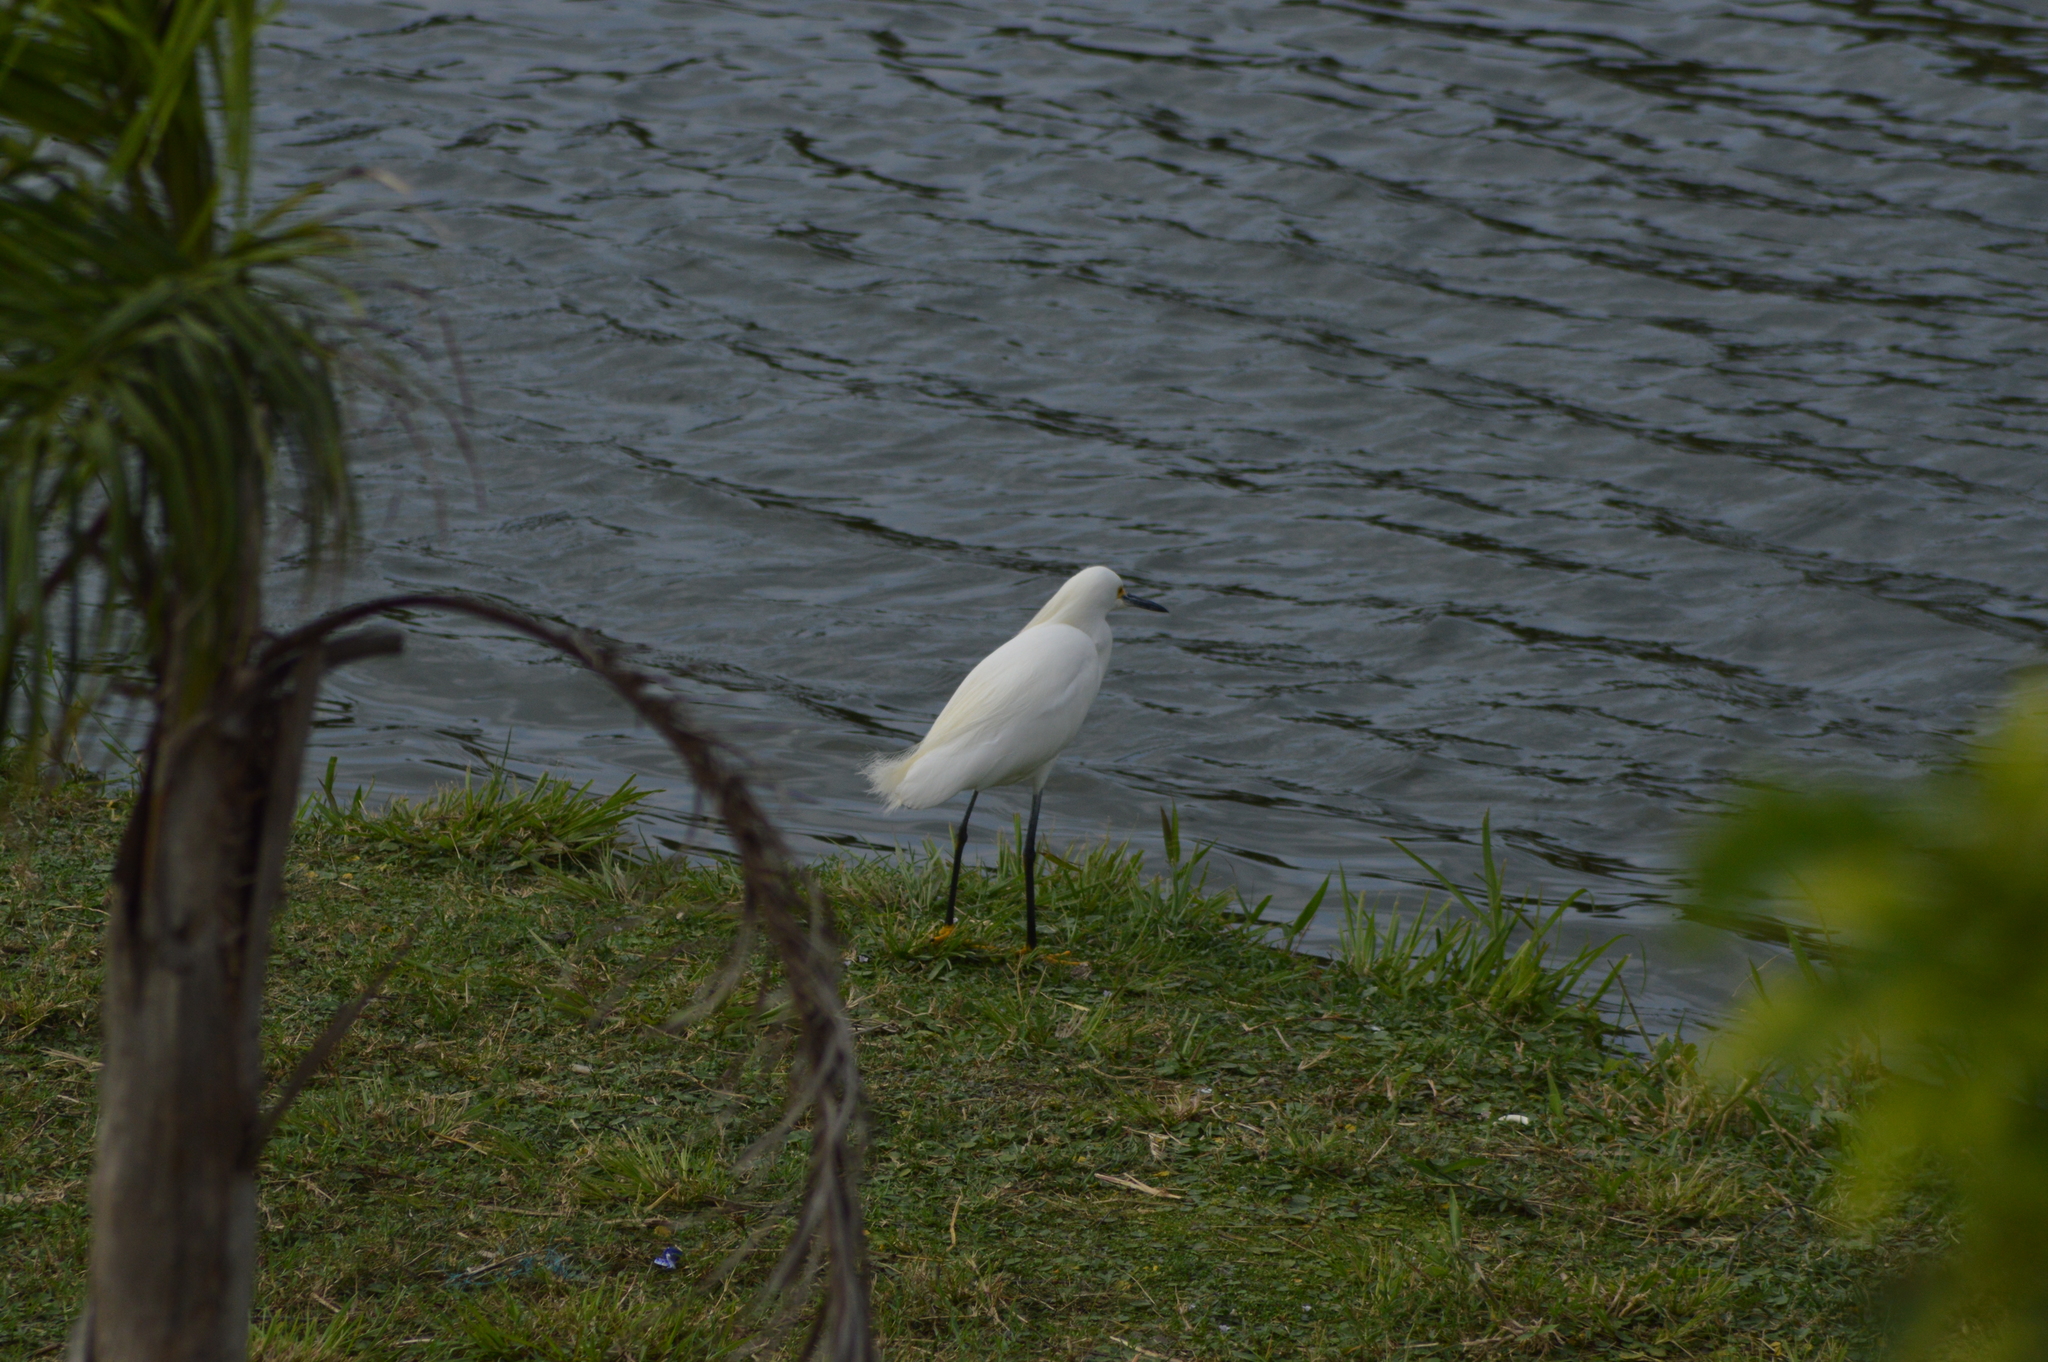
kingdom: Animalia
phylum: Chordata
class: Aves
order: Pelecaniformes
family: Ardeidae
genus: Egretta
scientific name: Egretta thula
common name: Snowy egret
